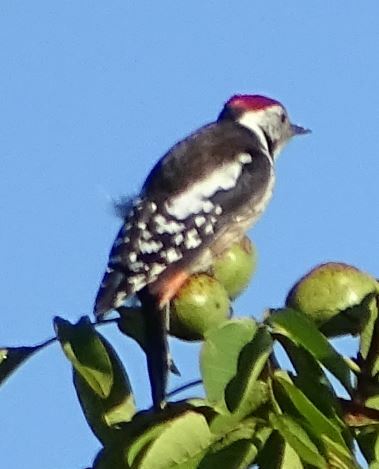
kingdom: Animalia
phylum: Chordata
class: Aves
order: Piciformes
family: Picidae
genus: Dendrocoptes
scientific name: Dendrocoptes medius
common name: Middle spotted woodpecker
